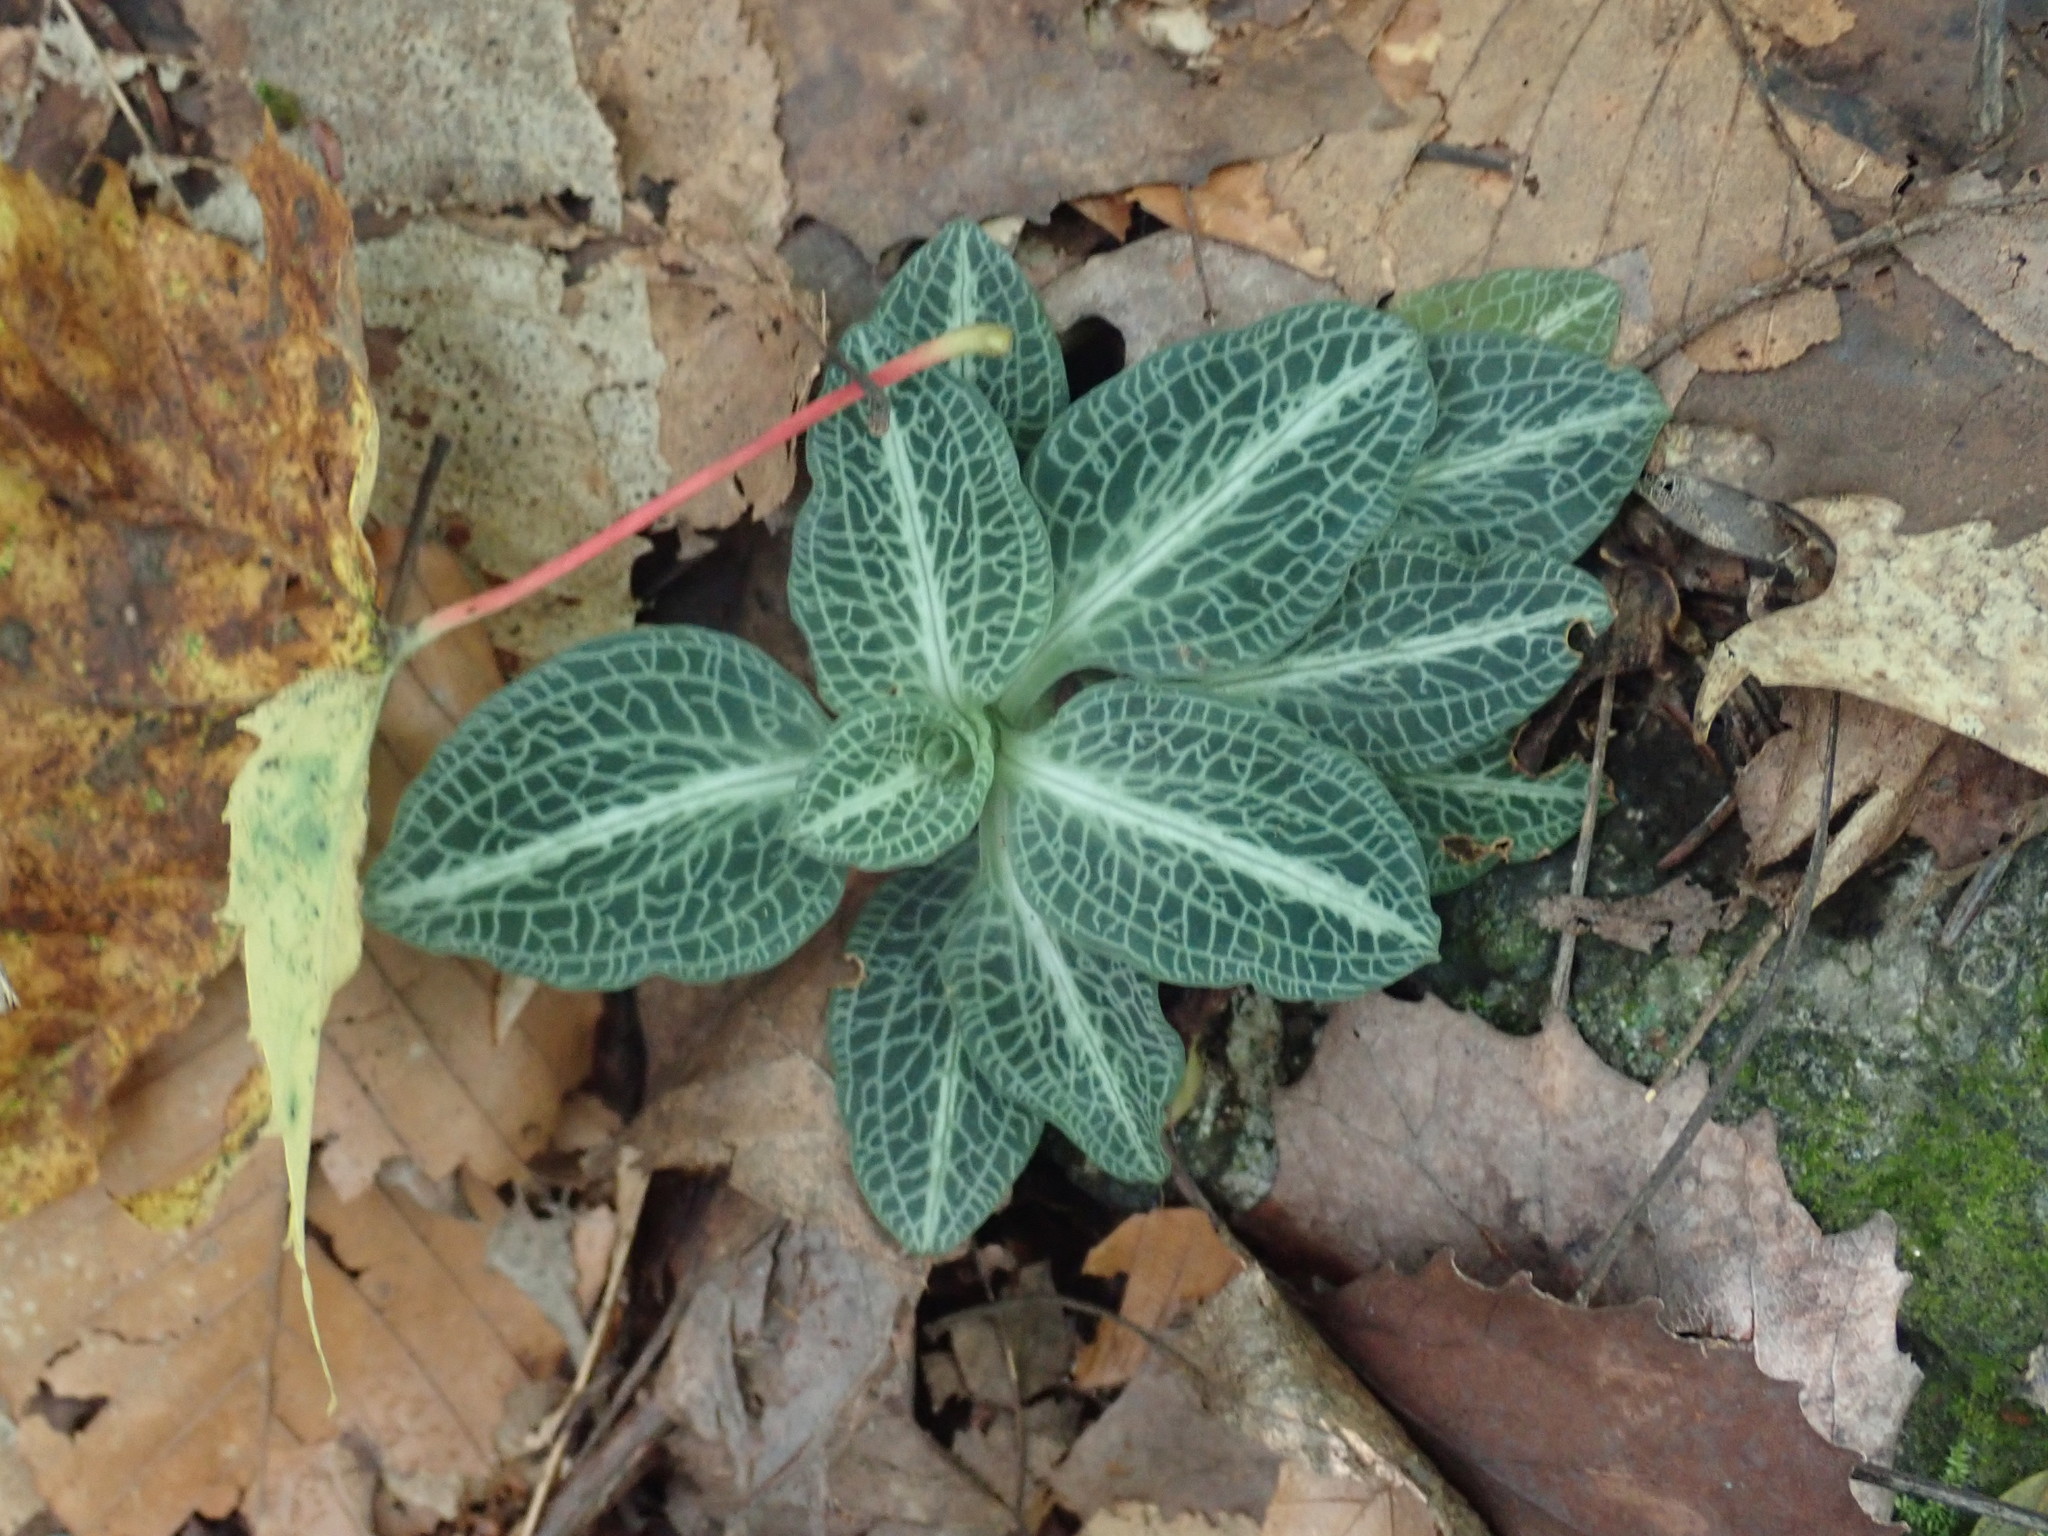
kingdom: Plantae
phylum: Tracheophyta
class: Liliopsida
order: Asparagales
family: Orchidaceae
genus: Goodyera
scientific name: Goodyera pubescens
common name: Downy rattlesnake-plantain
